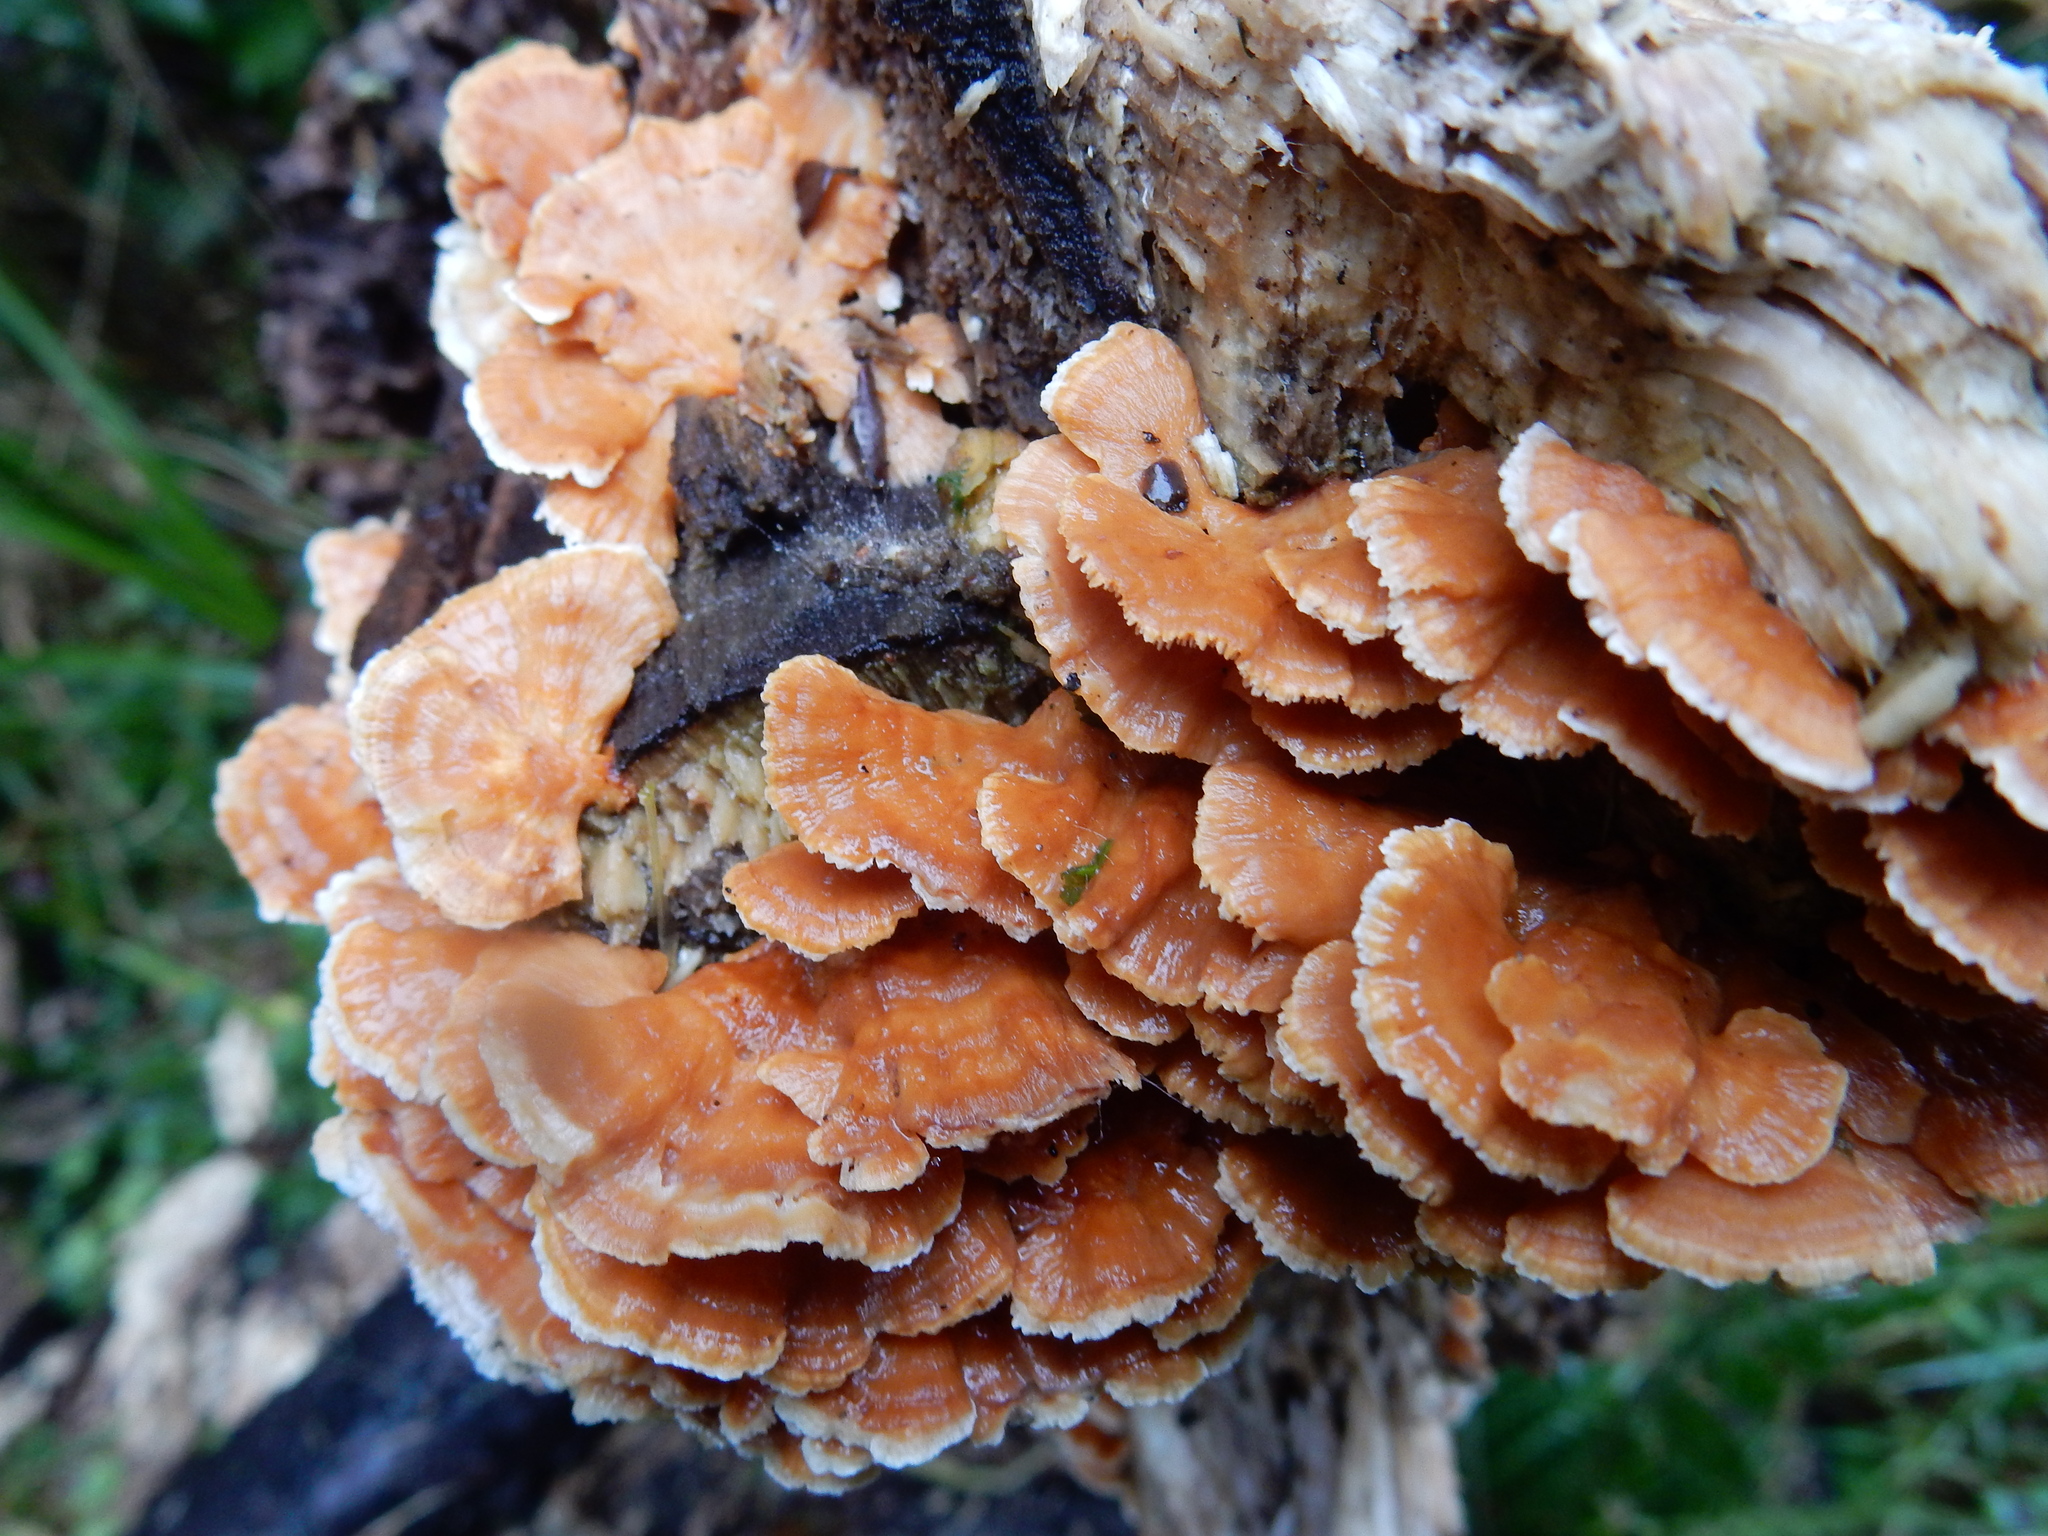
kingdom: Fungi
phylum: Basidiomycota
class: Agaricomycetes
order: Polyporales
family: Cerrenaceae
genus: Cerrena
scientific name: Cerrena zonata
